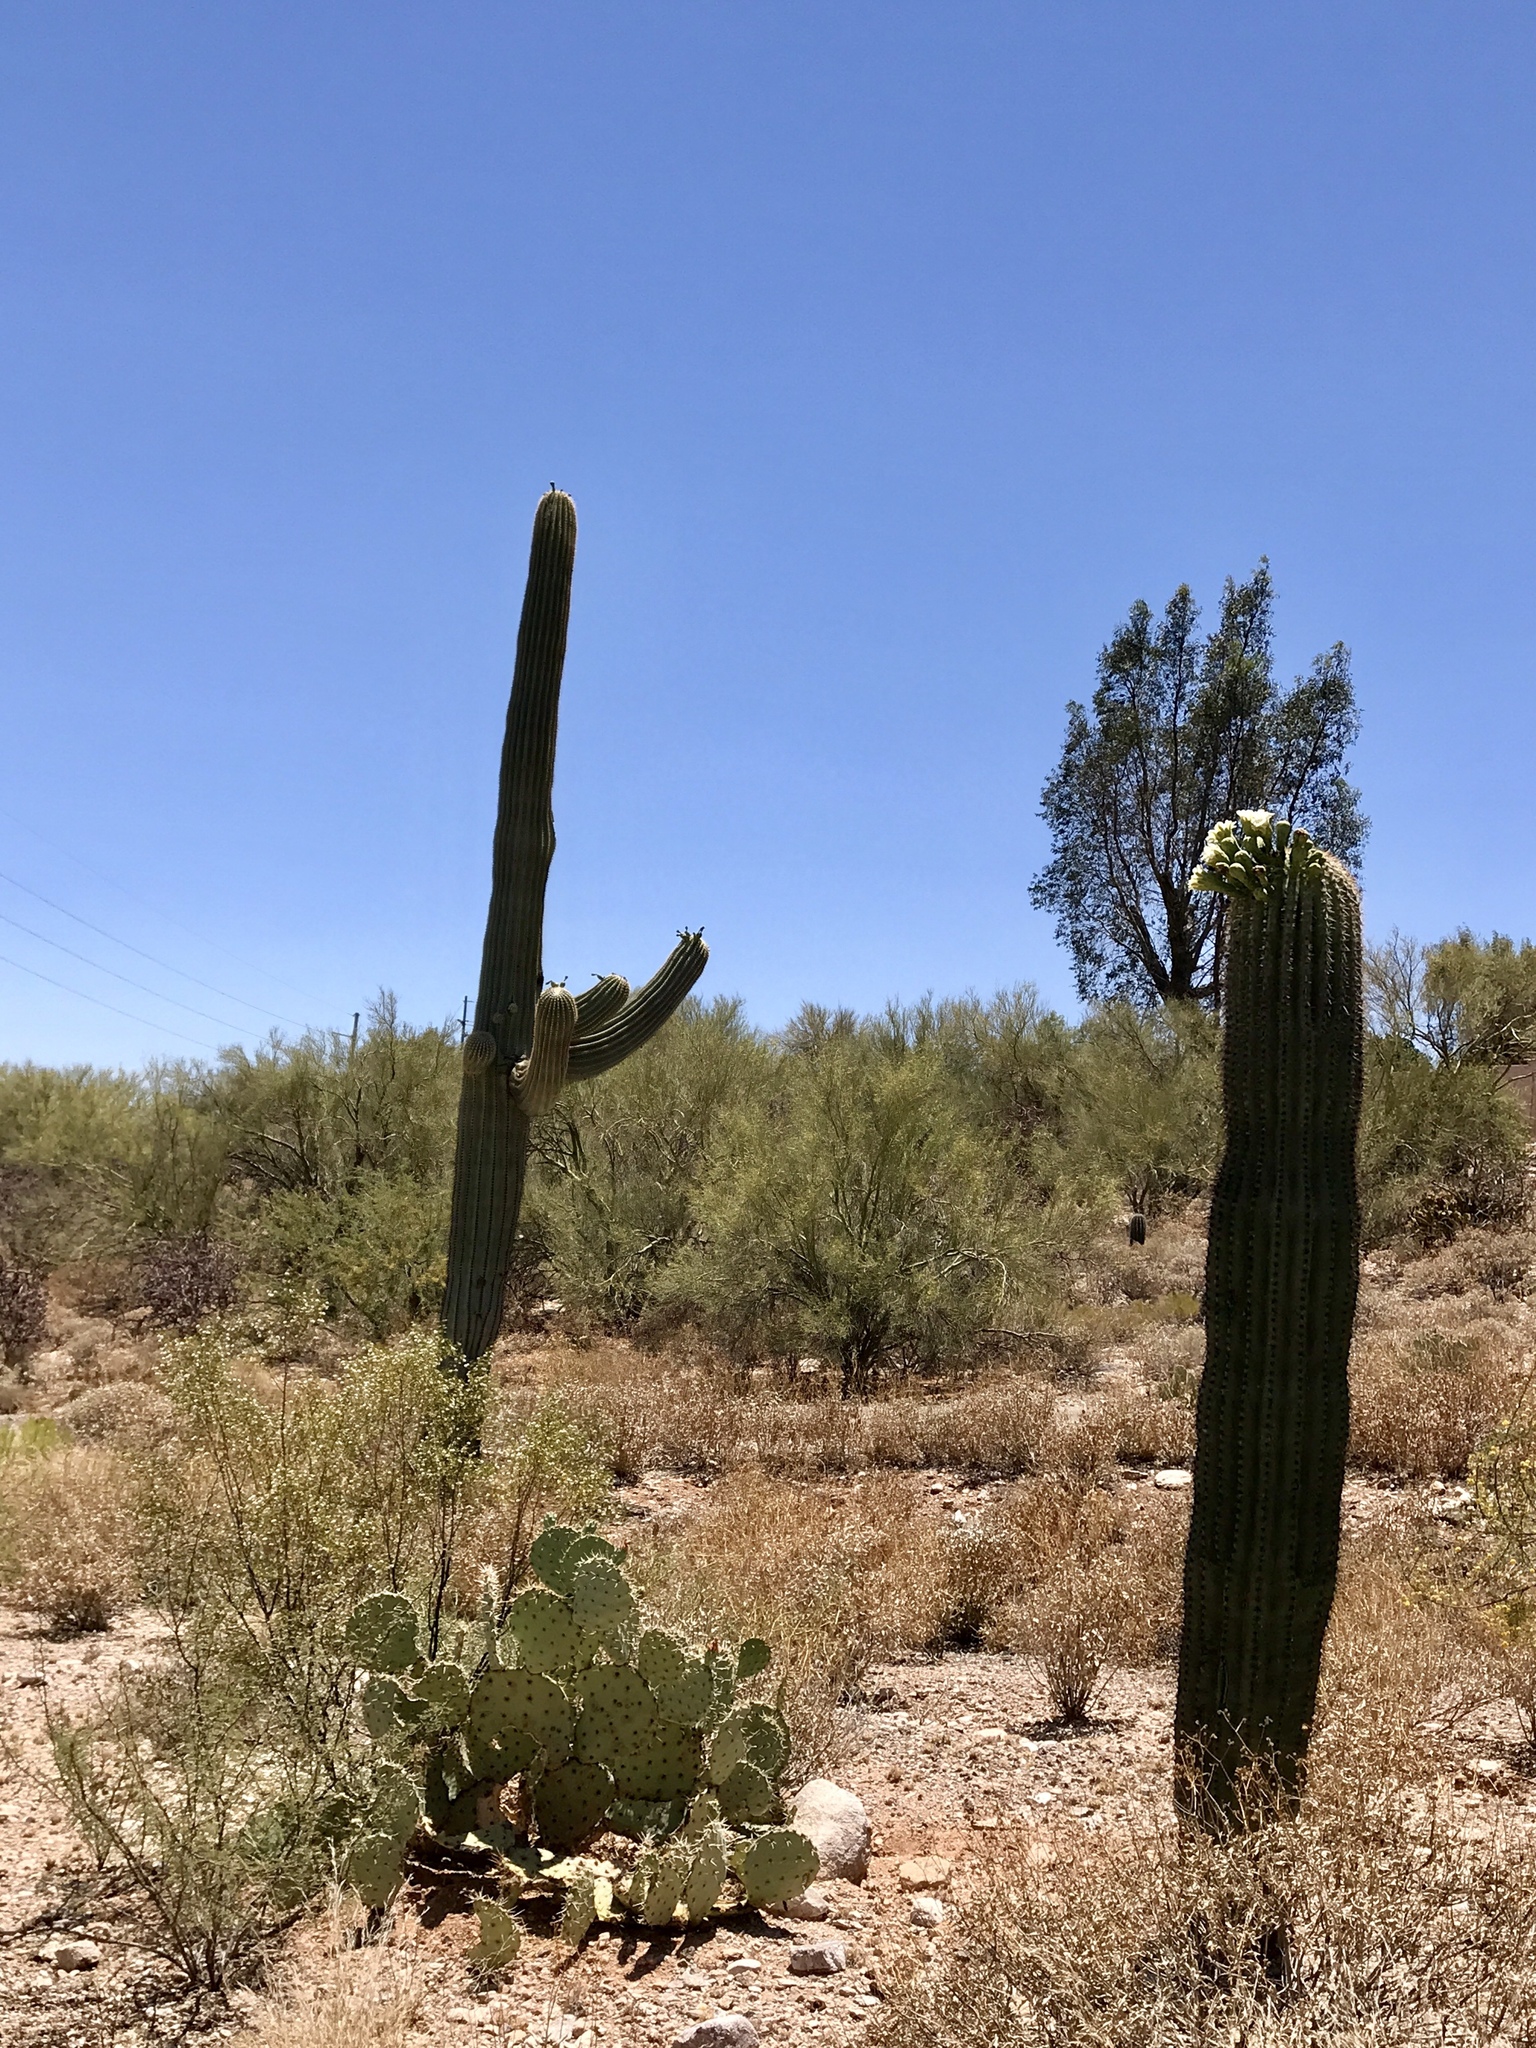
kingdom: Plantae
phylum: Tracheophyta
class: Magnoliopsida
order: Caryophyllales
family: Cactaceae
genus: Carnegiea
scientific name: Carnegiea gigantea
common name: Saguaro
